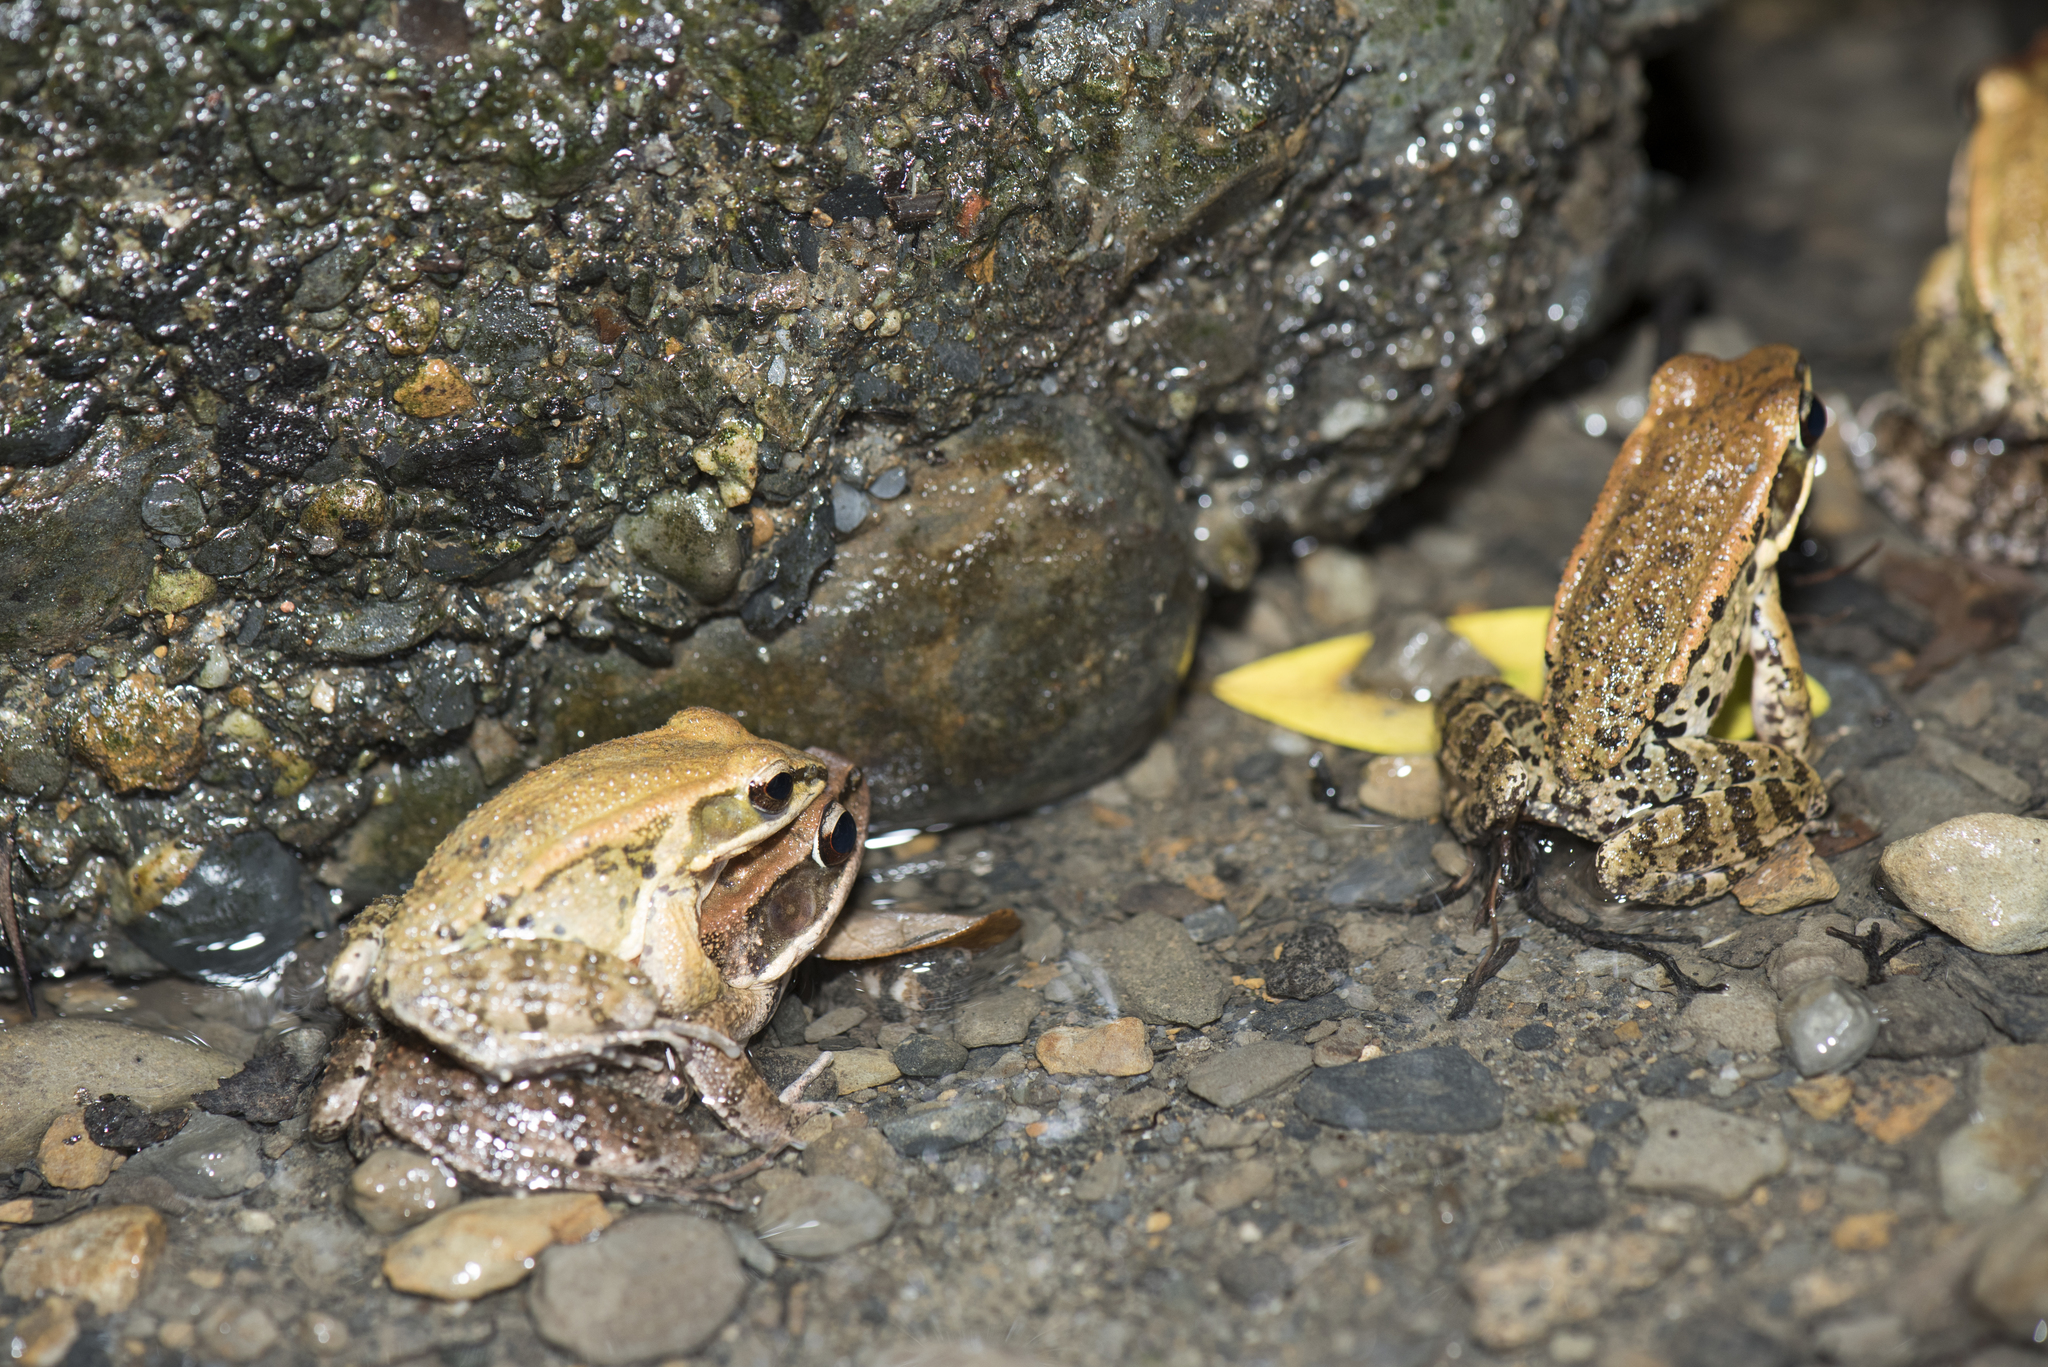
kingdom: Animalia
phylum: Chordata
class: Amphibia
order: Anura
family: Ranidae
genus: Hylarana
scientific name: Hylarana latouchii
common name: Broad-folded frog
